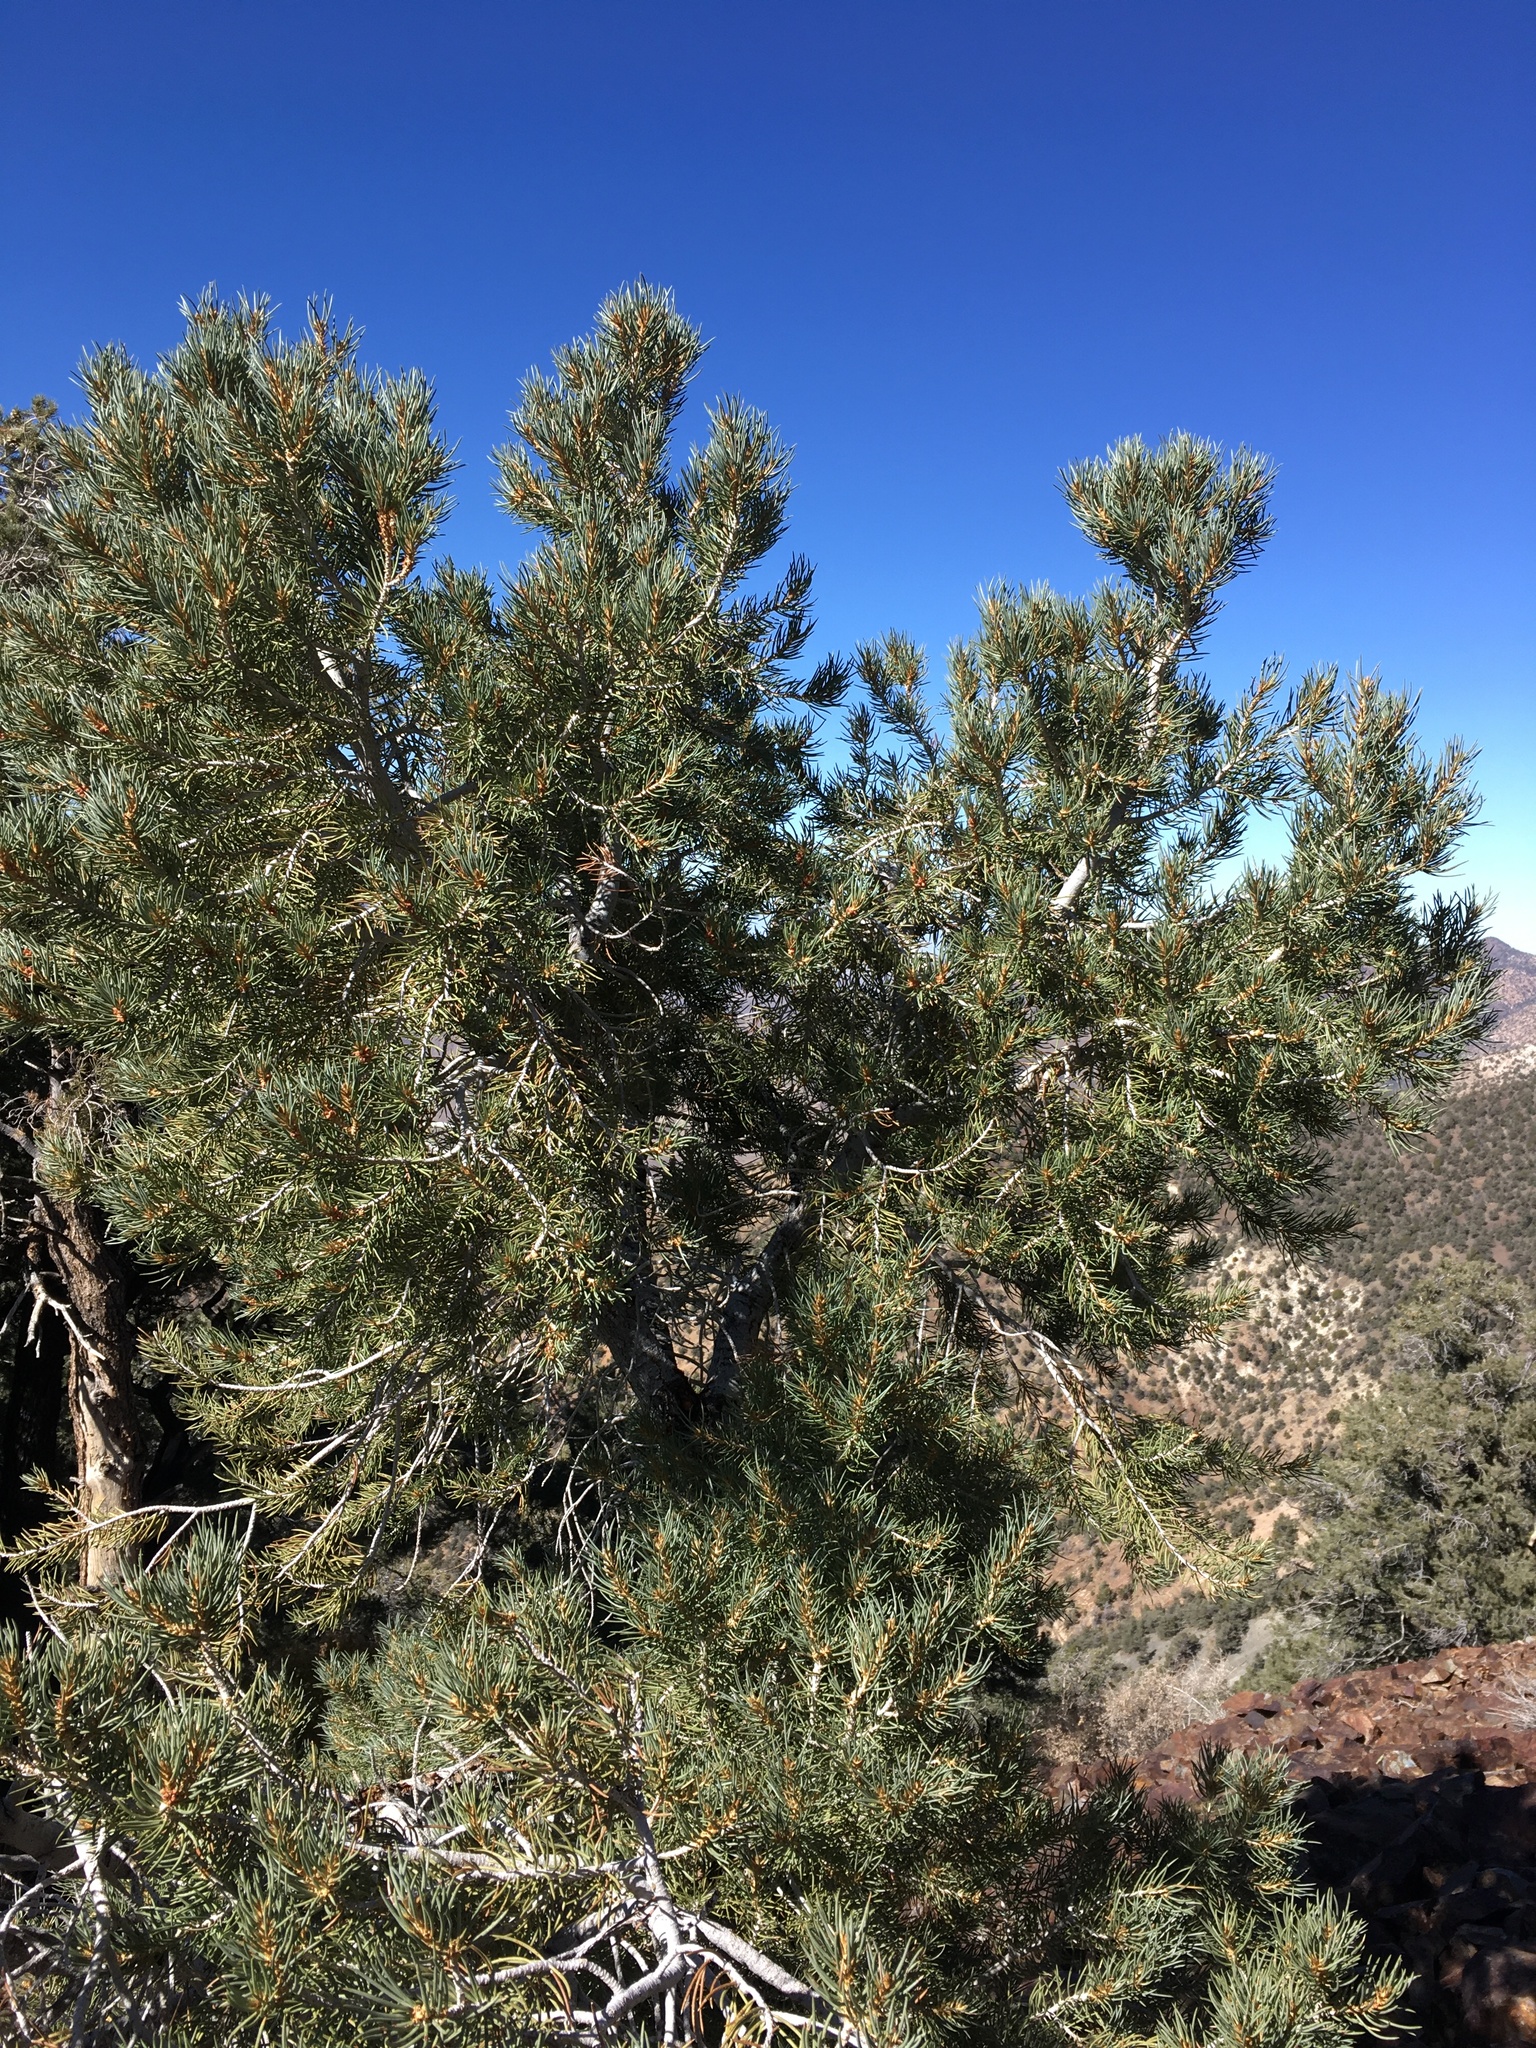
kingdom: Plantae
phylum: Tracheophyta
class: Pinopsida
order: Pinales
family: Pinaceae
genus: Pinus
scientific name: Pinus monophylla
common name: One-leaved nut pine
